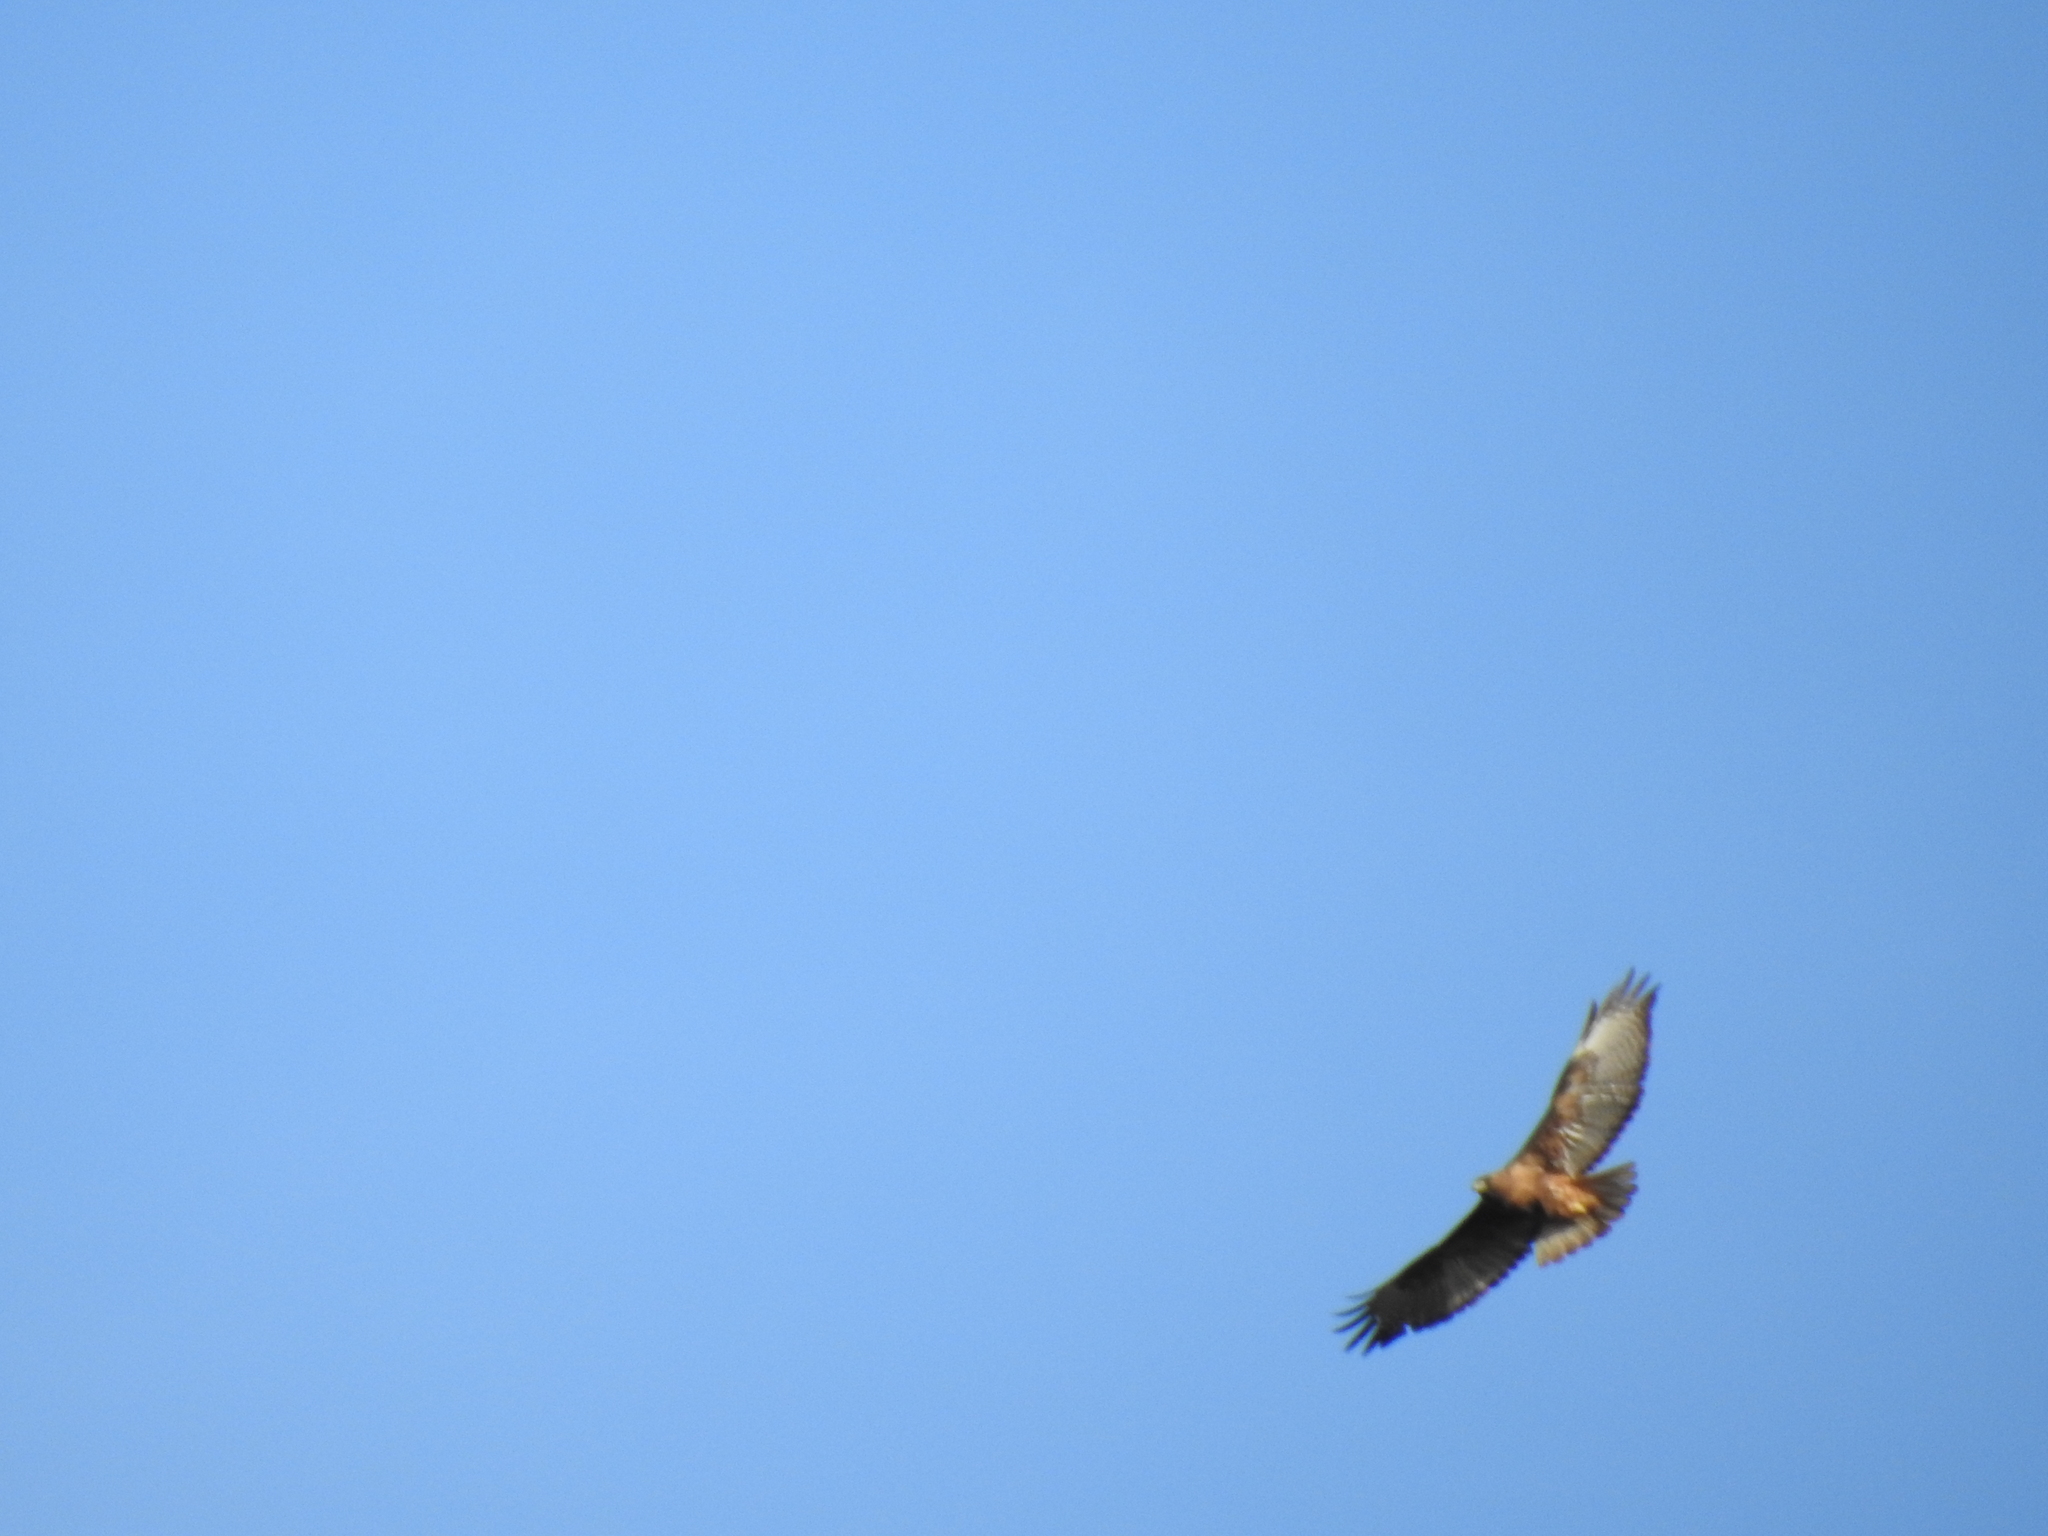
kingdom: Animalia
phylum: Chordata
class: Aves
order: Accipitriformes
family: Accipitridae
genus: Buteo
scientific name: Buteo jamaicensis
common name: Red-tailed hawk
